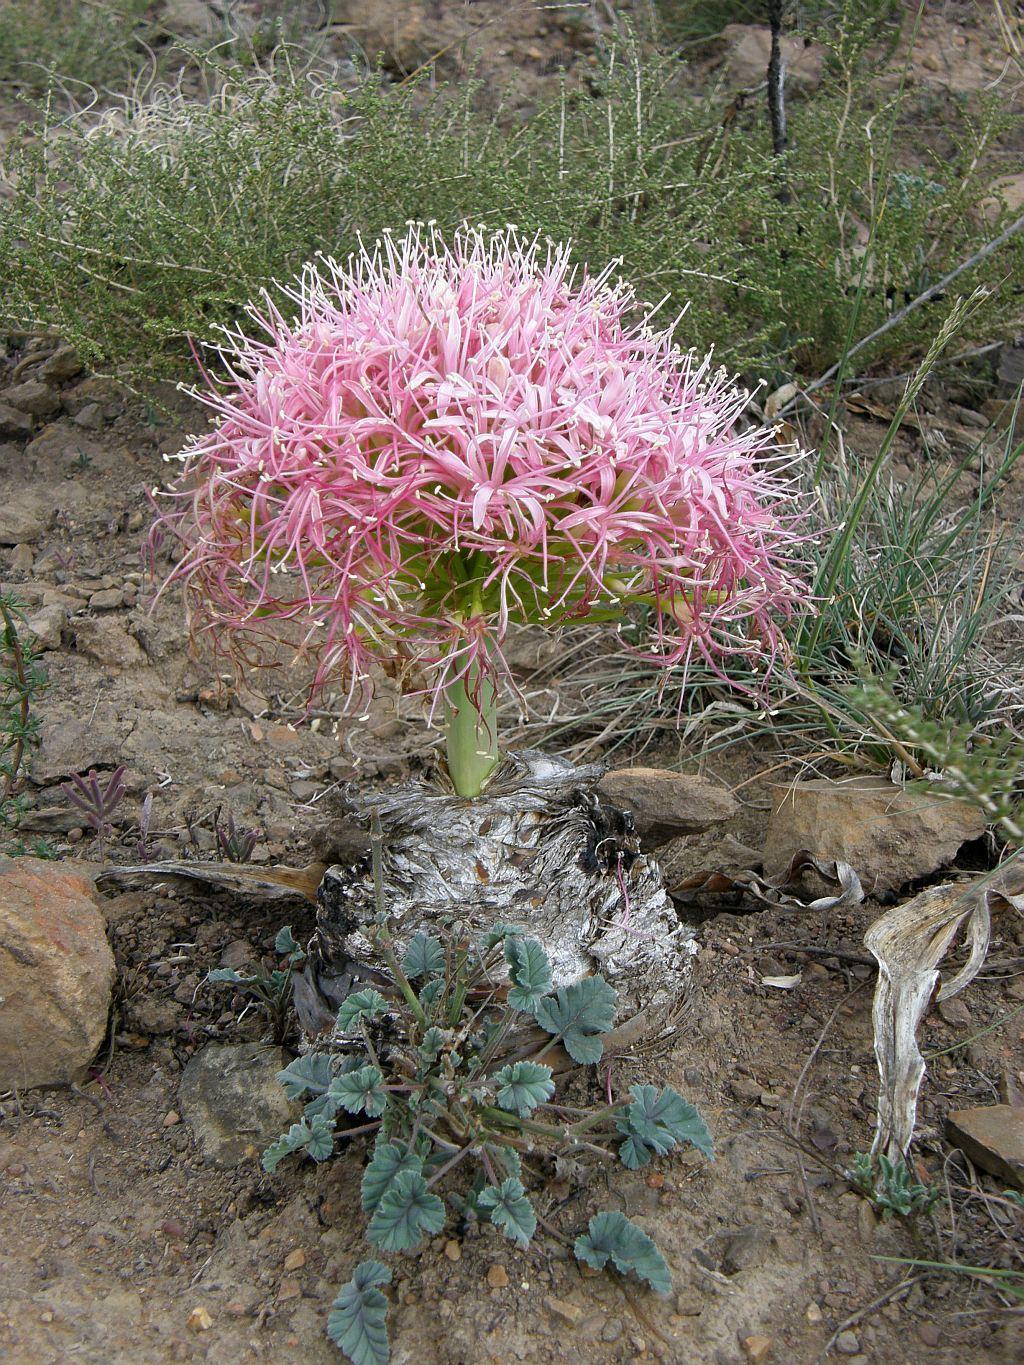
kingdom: Plantae
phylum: Tracheophyta
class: Liliopsida
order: Asparagales
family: Amaryllidaceae
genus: Boophone
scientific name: Boophone disticha
